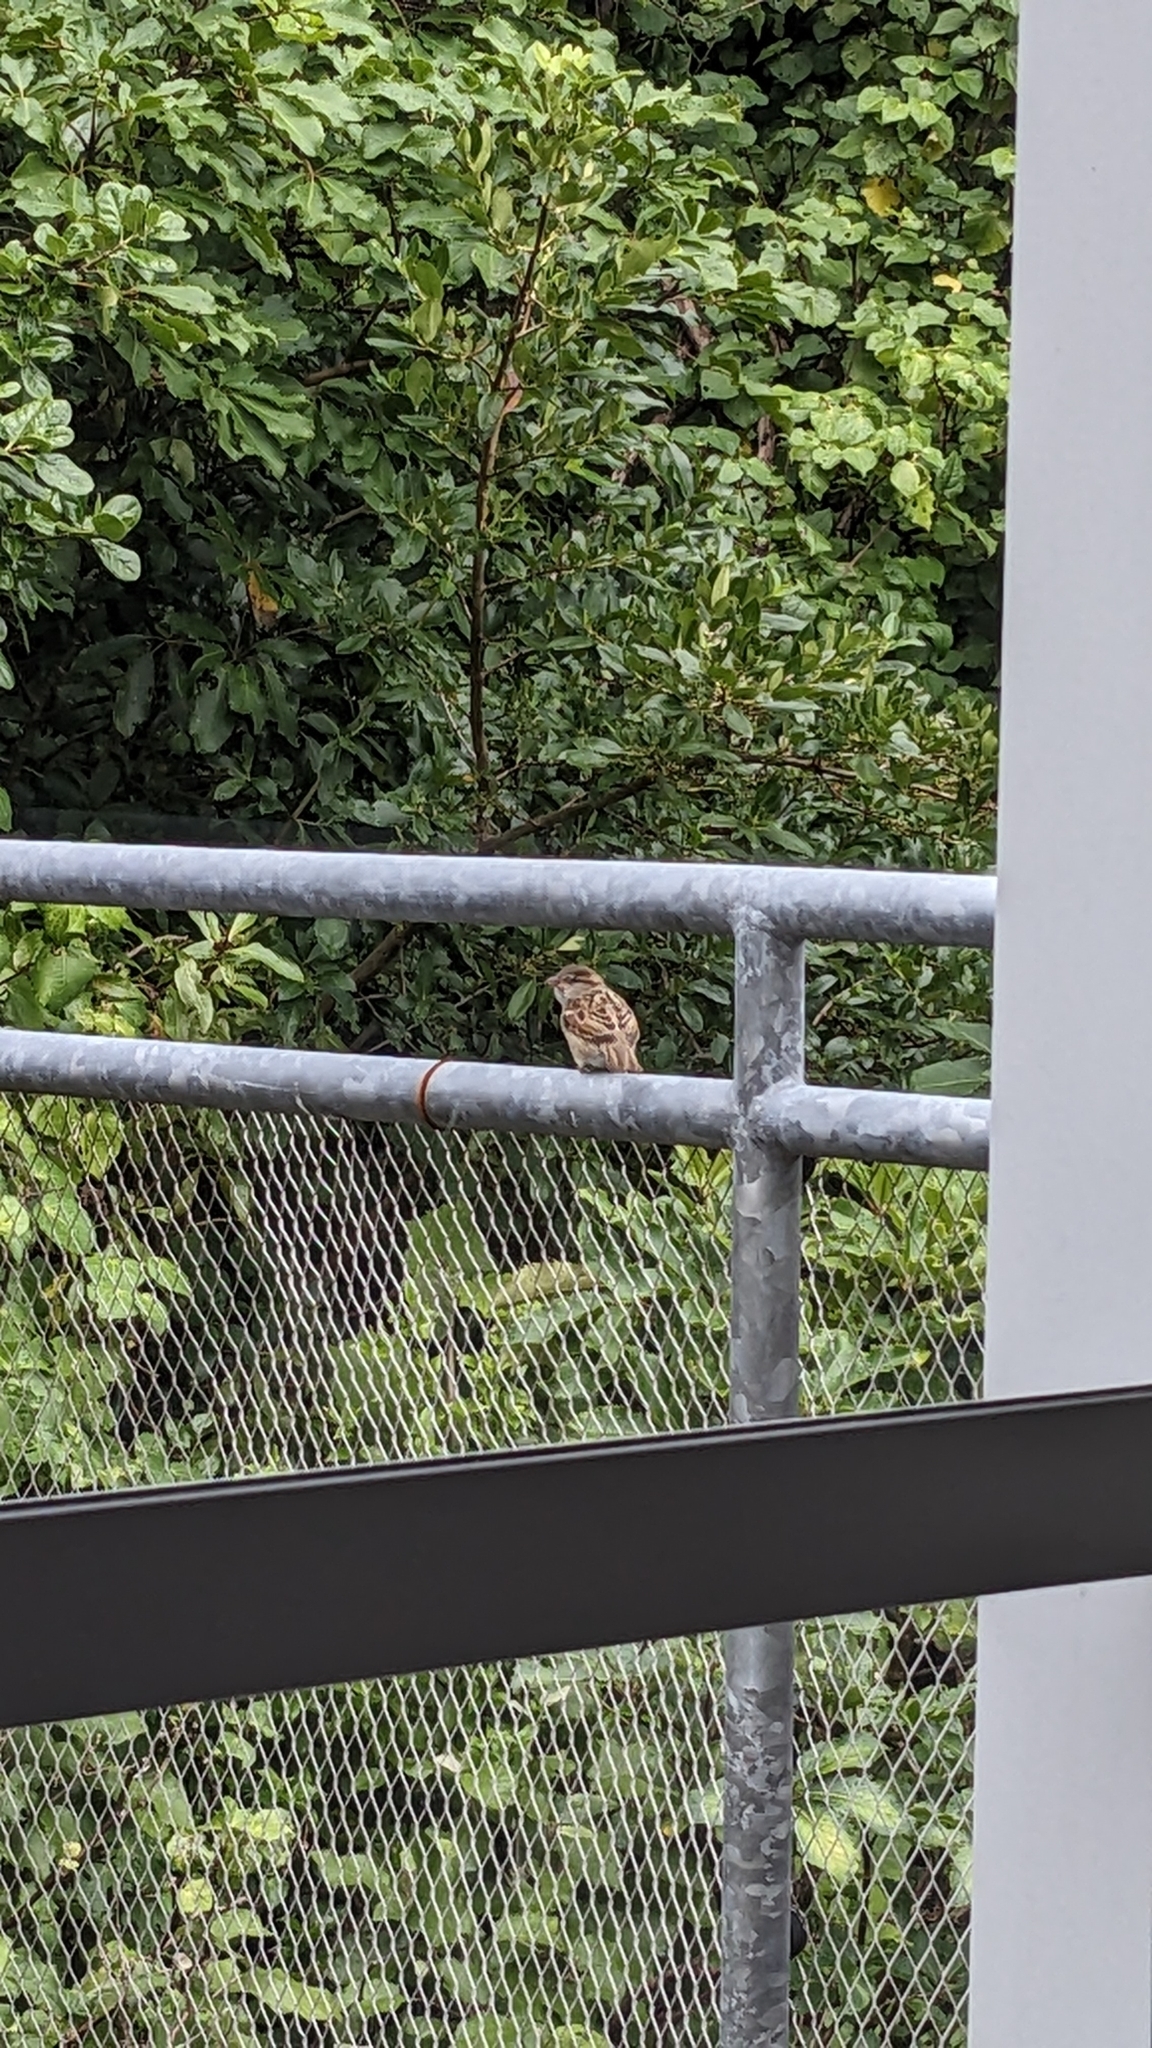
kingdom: Animalia
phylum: Chordata
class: Aves
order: Passeriformes
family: Passeridae
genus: Passer
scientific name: Passer domesticus
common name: House sparrow
